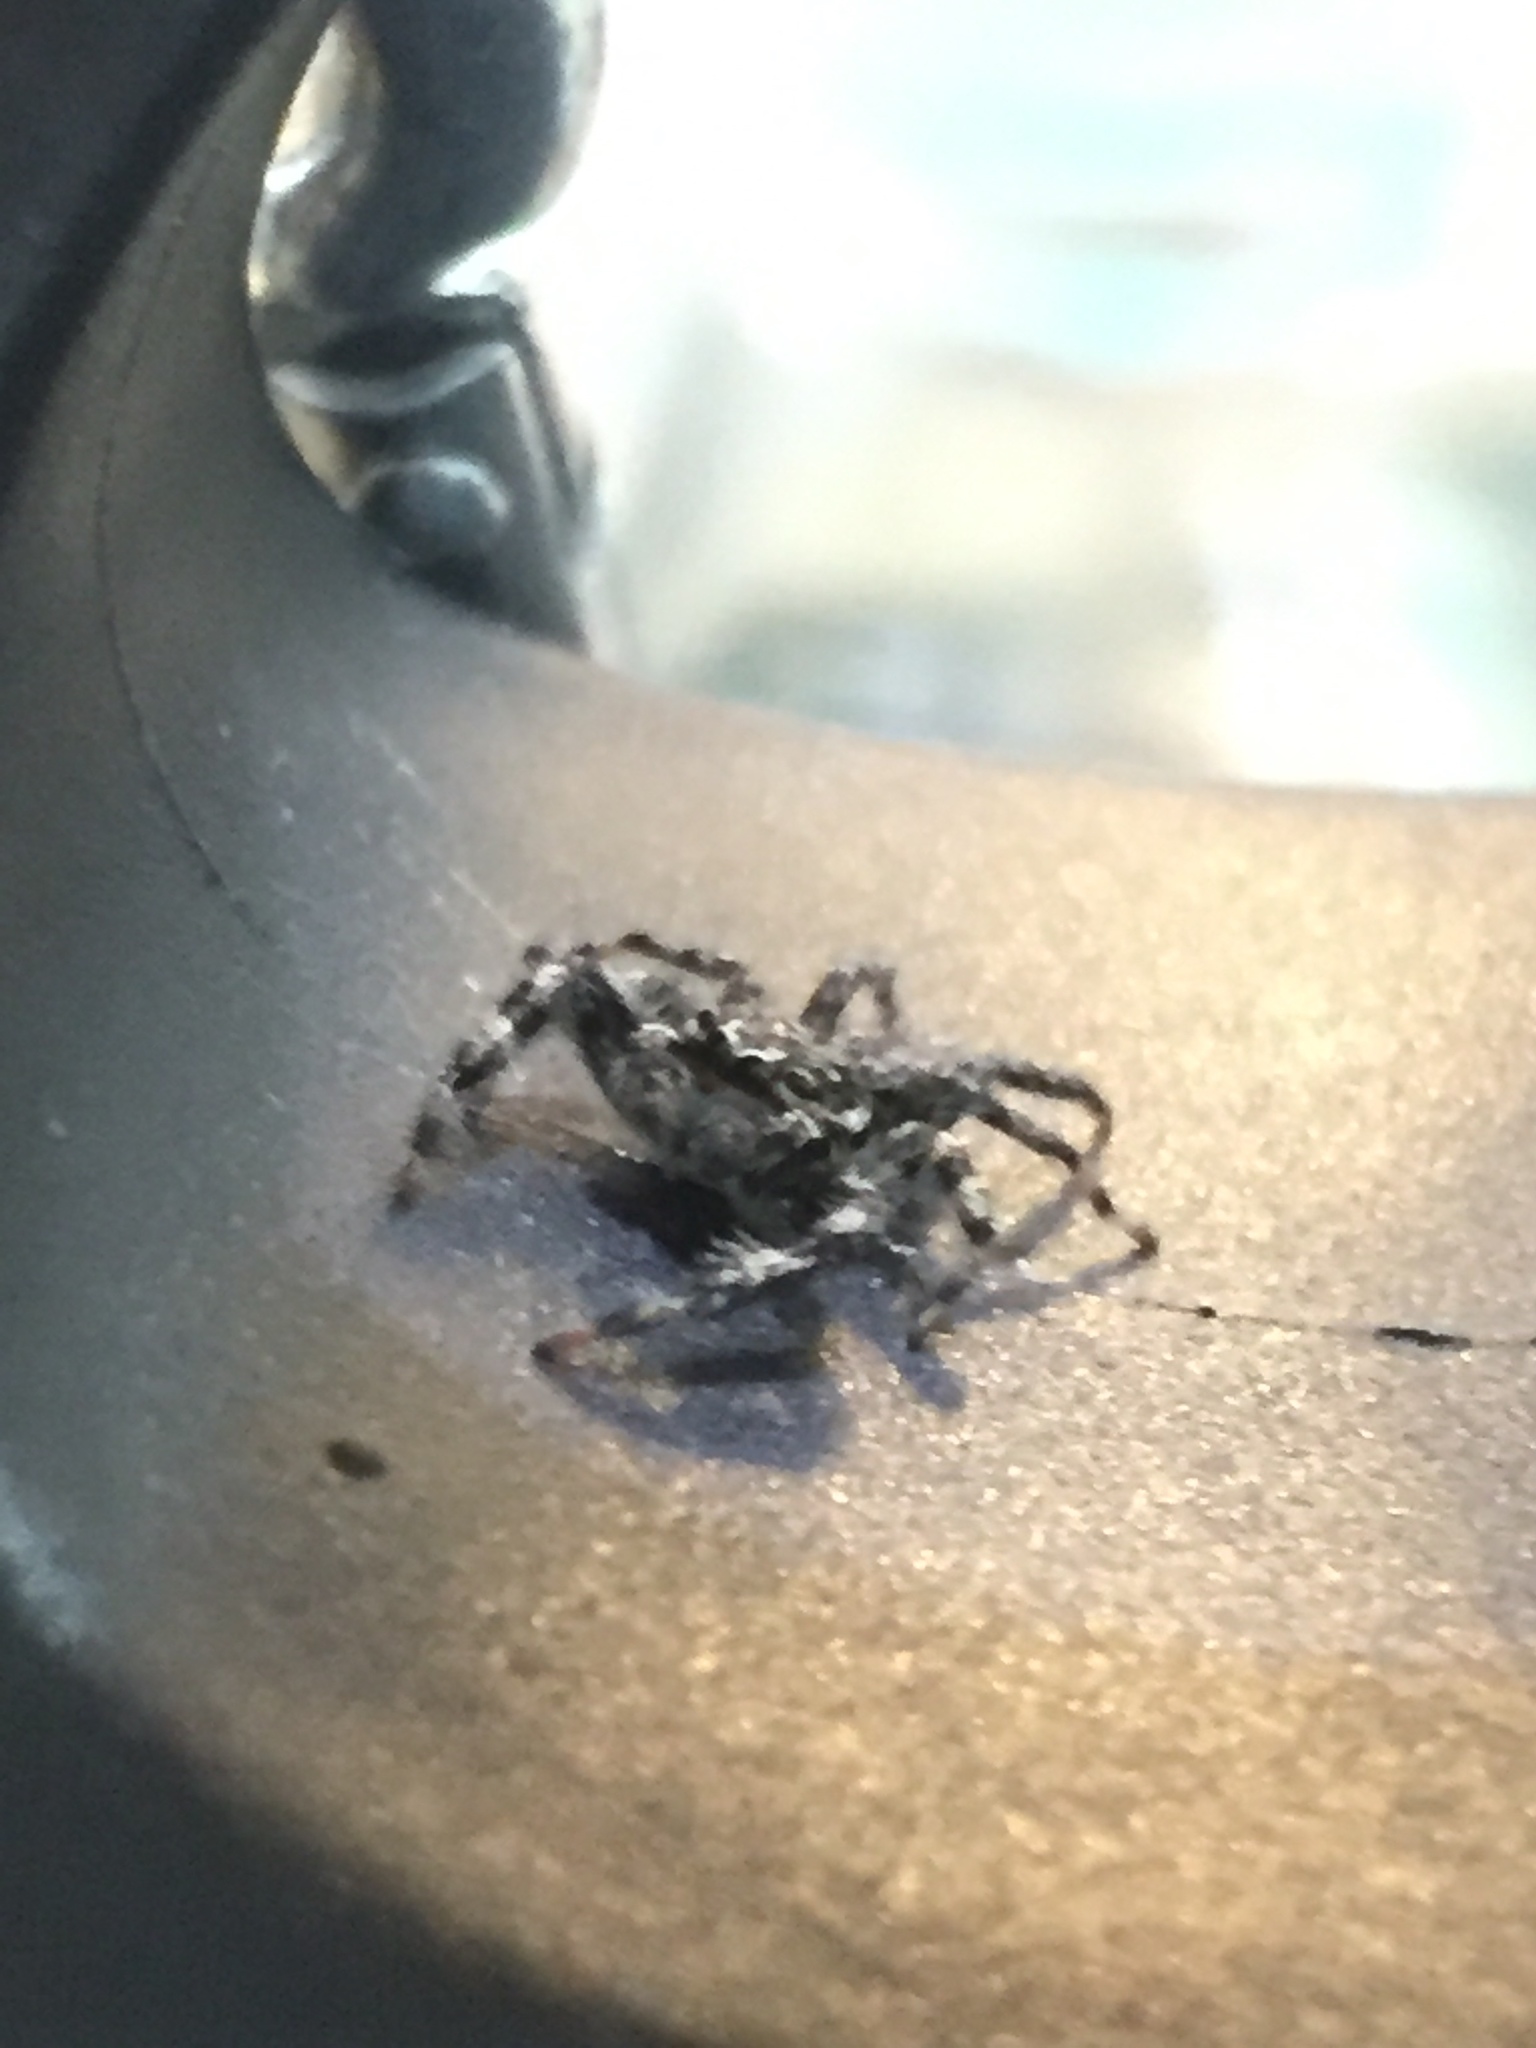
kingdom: Animalia
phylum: Arthropoda
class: Arachnida
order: Araneae
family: Salticidae
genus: Platycryptus
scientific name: Platycryptus undatus
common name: Tan jumping spider
